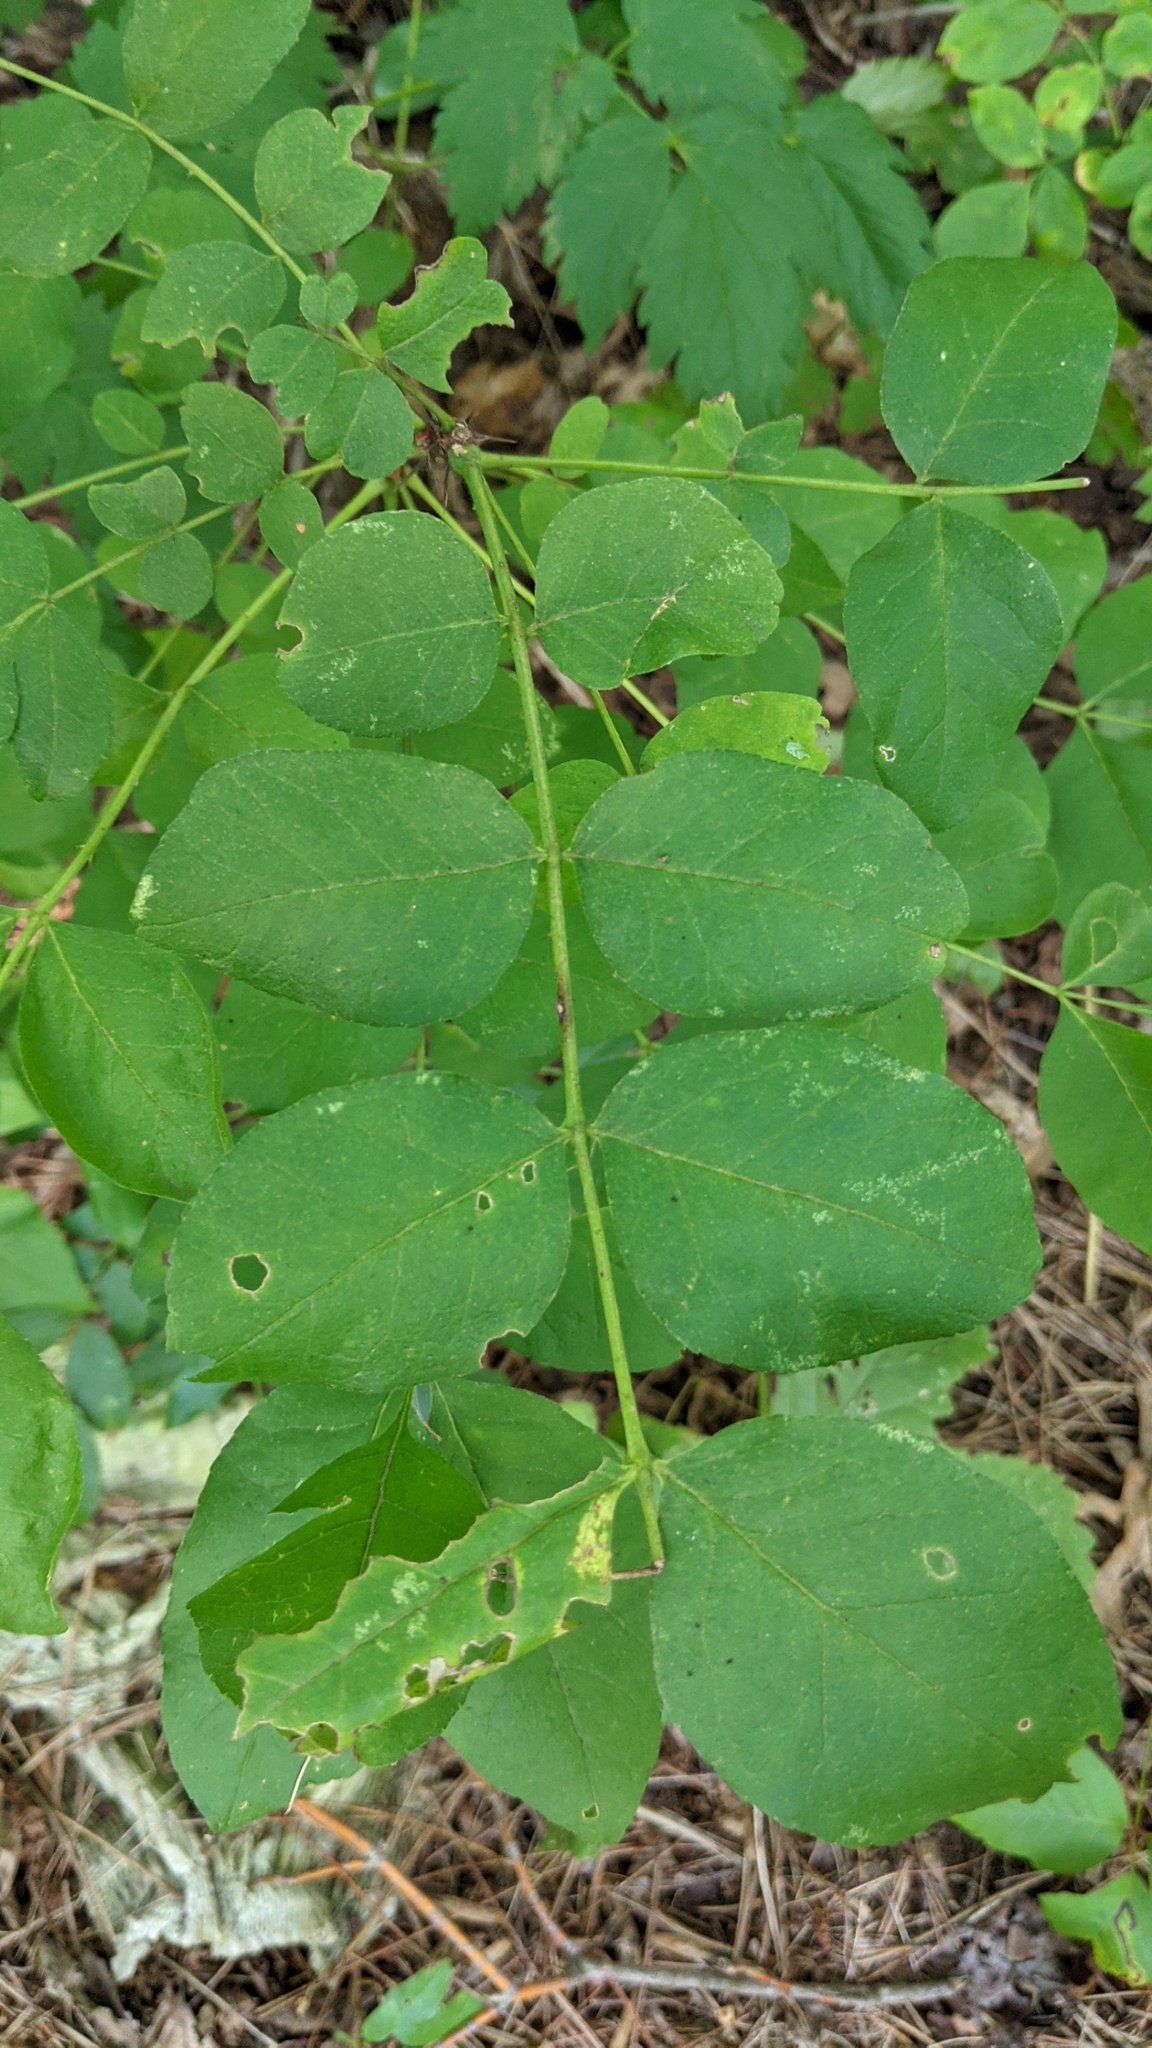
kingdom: Plantae
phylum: Tracheophyta
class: Magnoliopsida
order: Sapindales
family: Rutaceae
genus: Zanthoxylum
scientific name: Zanthoxylum americanum
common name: Northern prickly-ash
